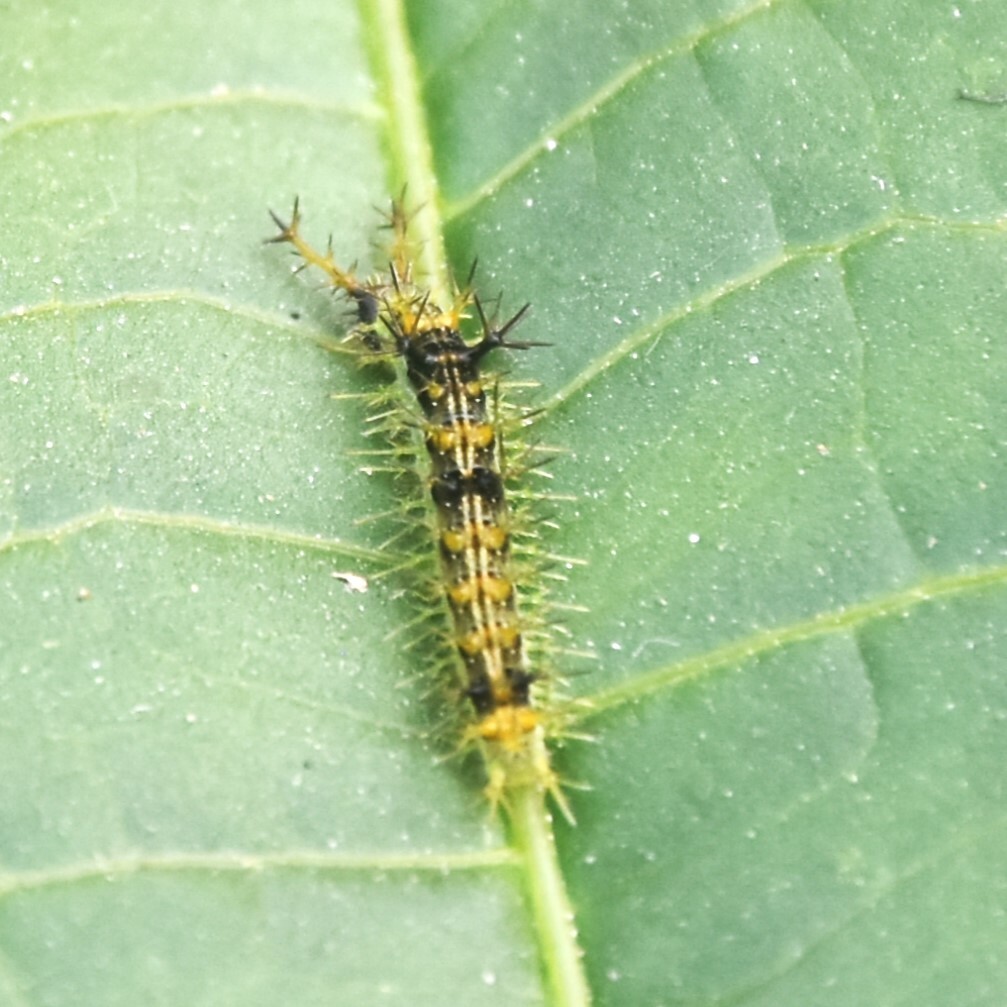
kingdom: Animalia
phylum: Arthropoda
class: Insecta
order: Lepidoptera
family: Nymphalidae
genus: Ariadne
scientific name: Ariadne merione
